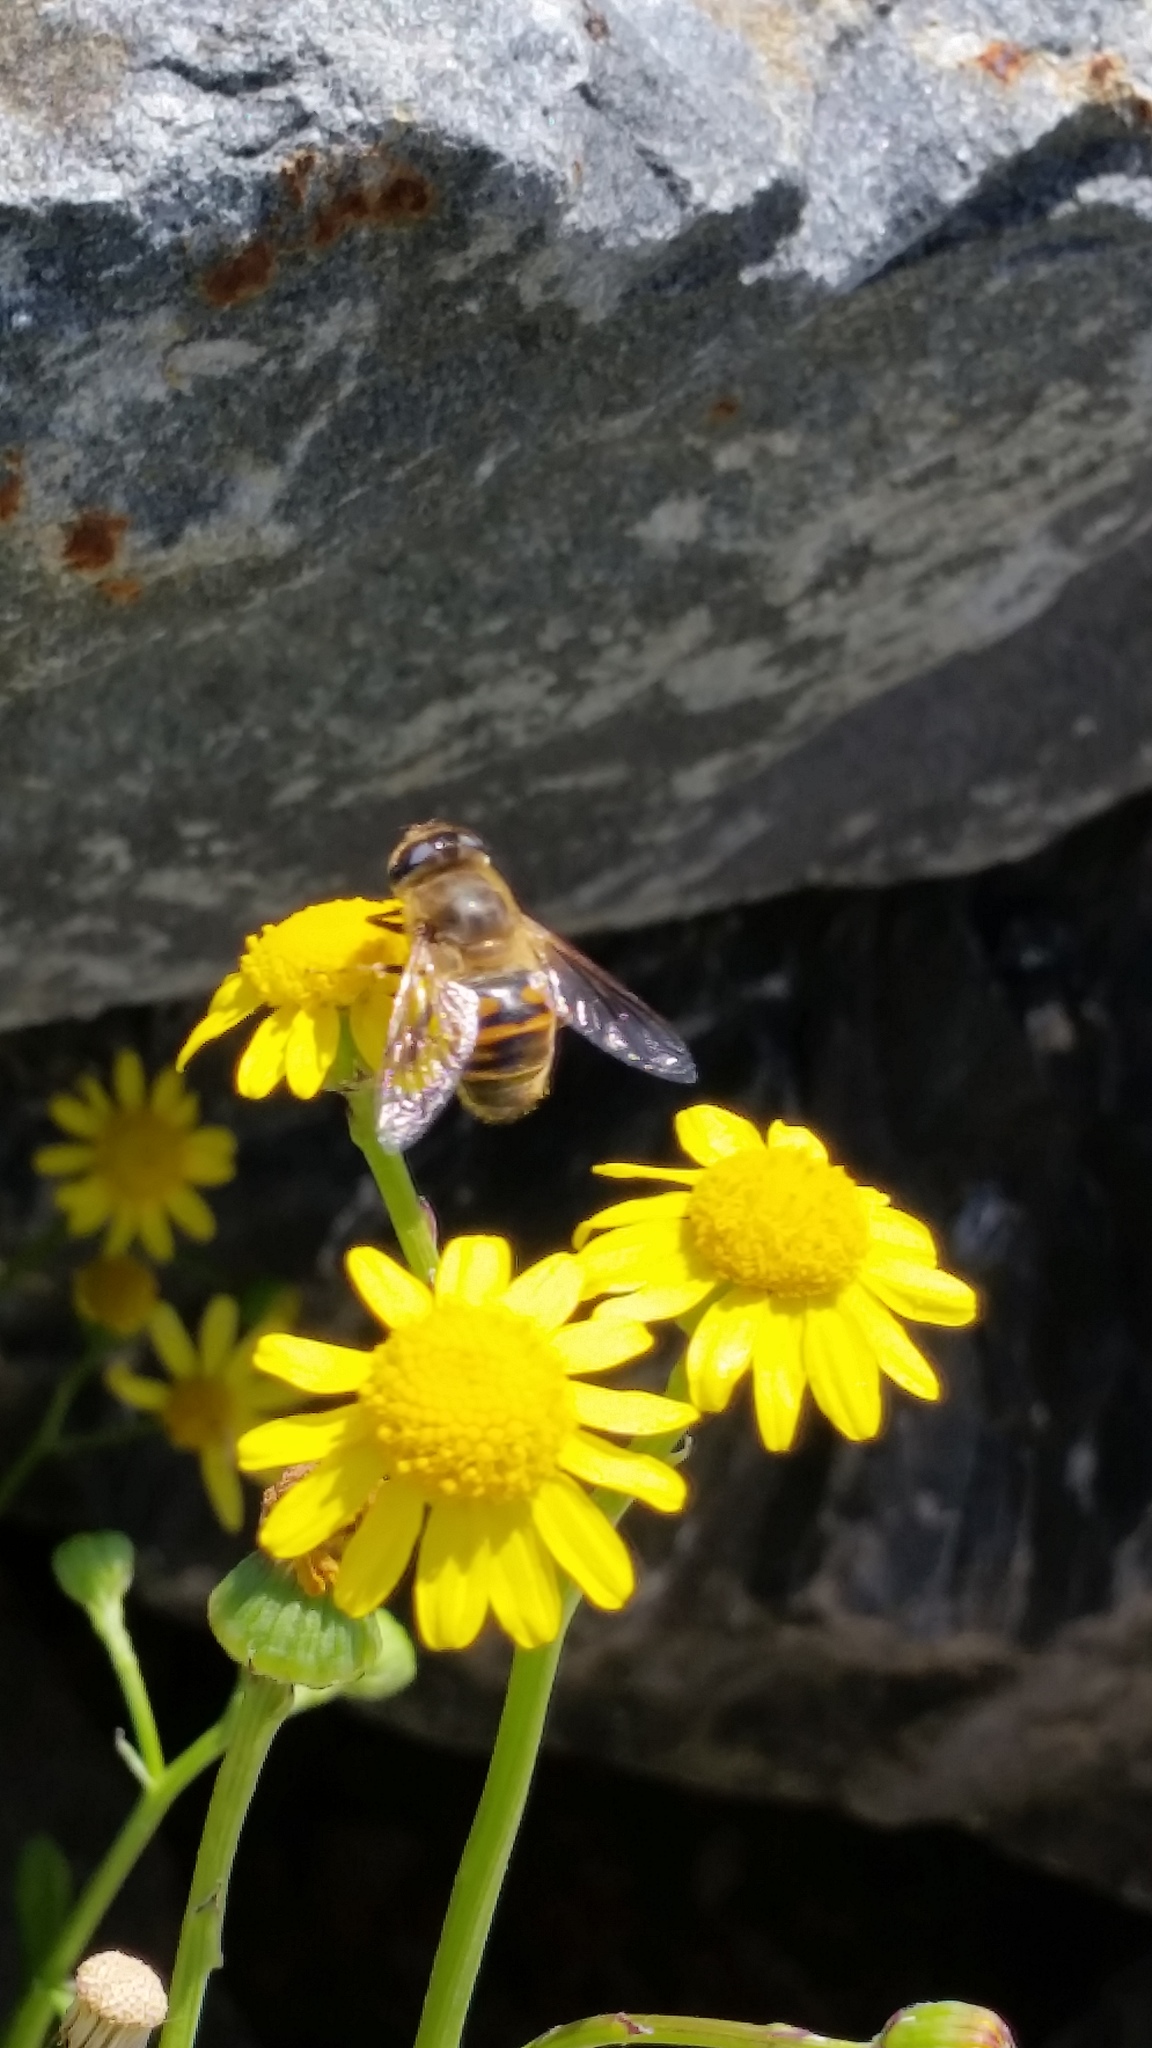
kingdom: Animalia
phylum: Arthropoda
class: Insecta
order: Diptera
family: Syrphidae
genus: Eristalis
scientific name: Eristalis tenax
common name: Drone fly
